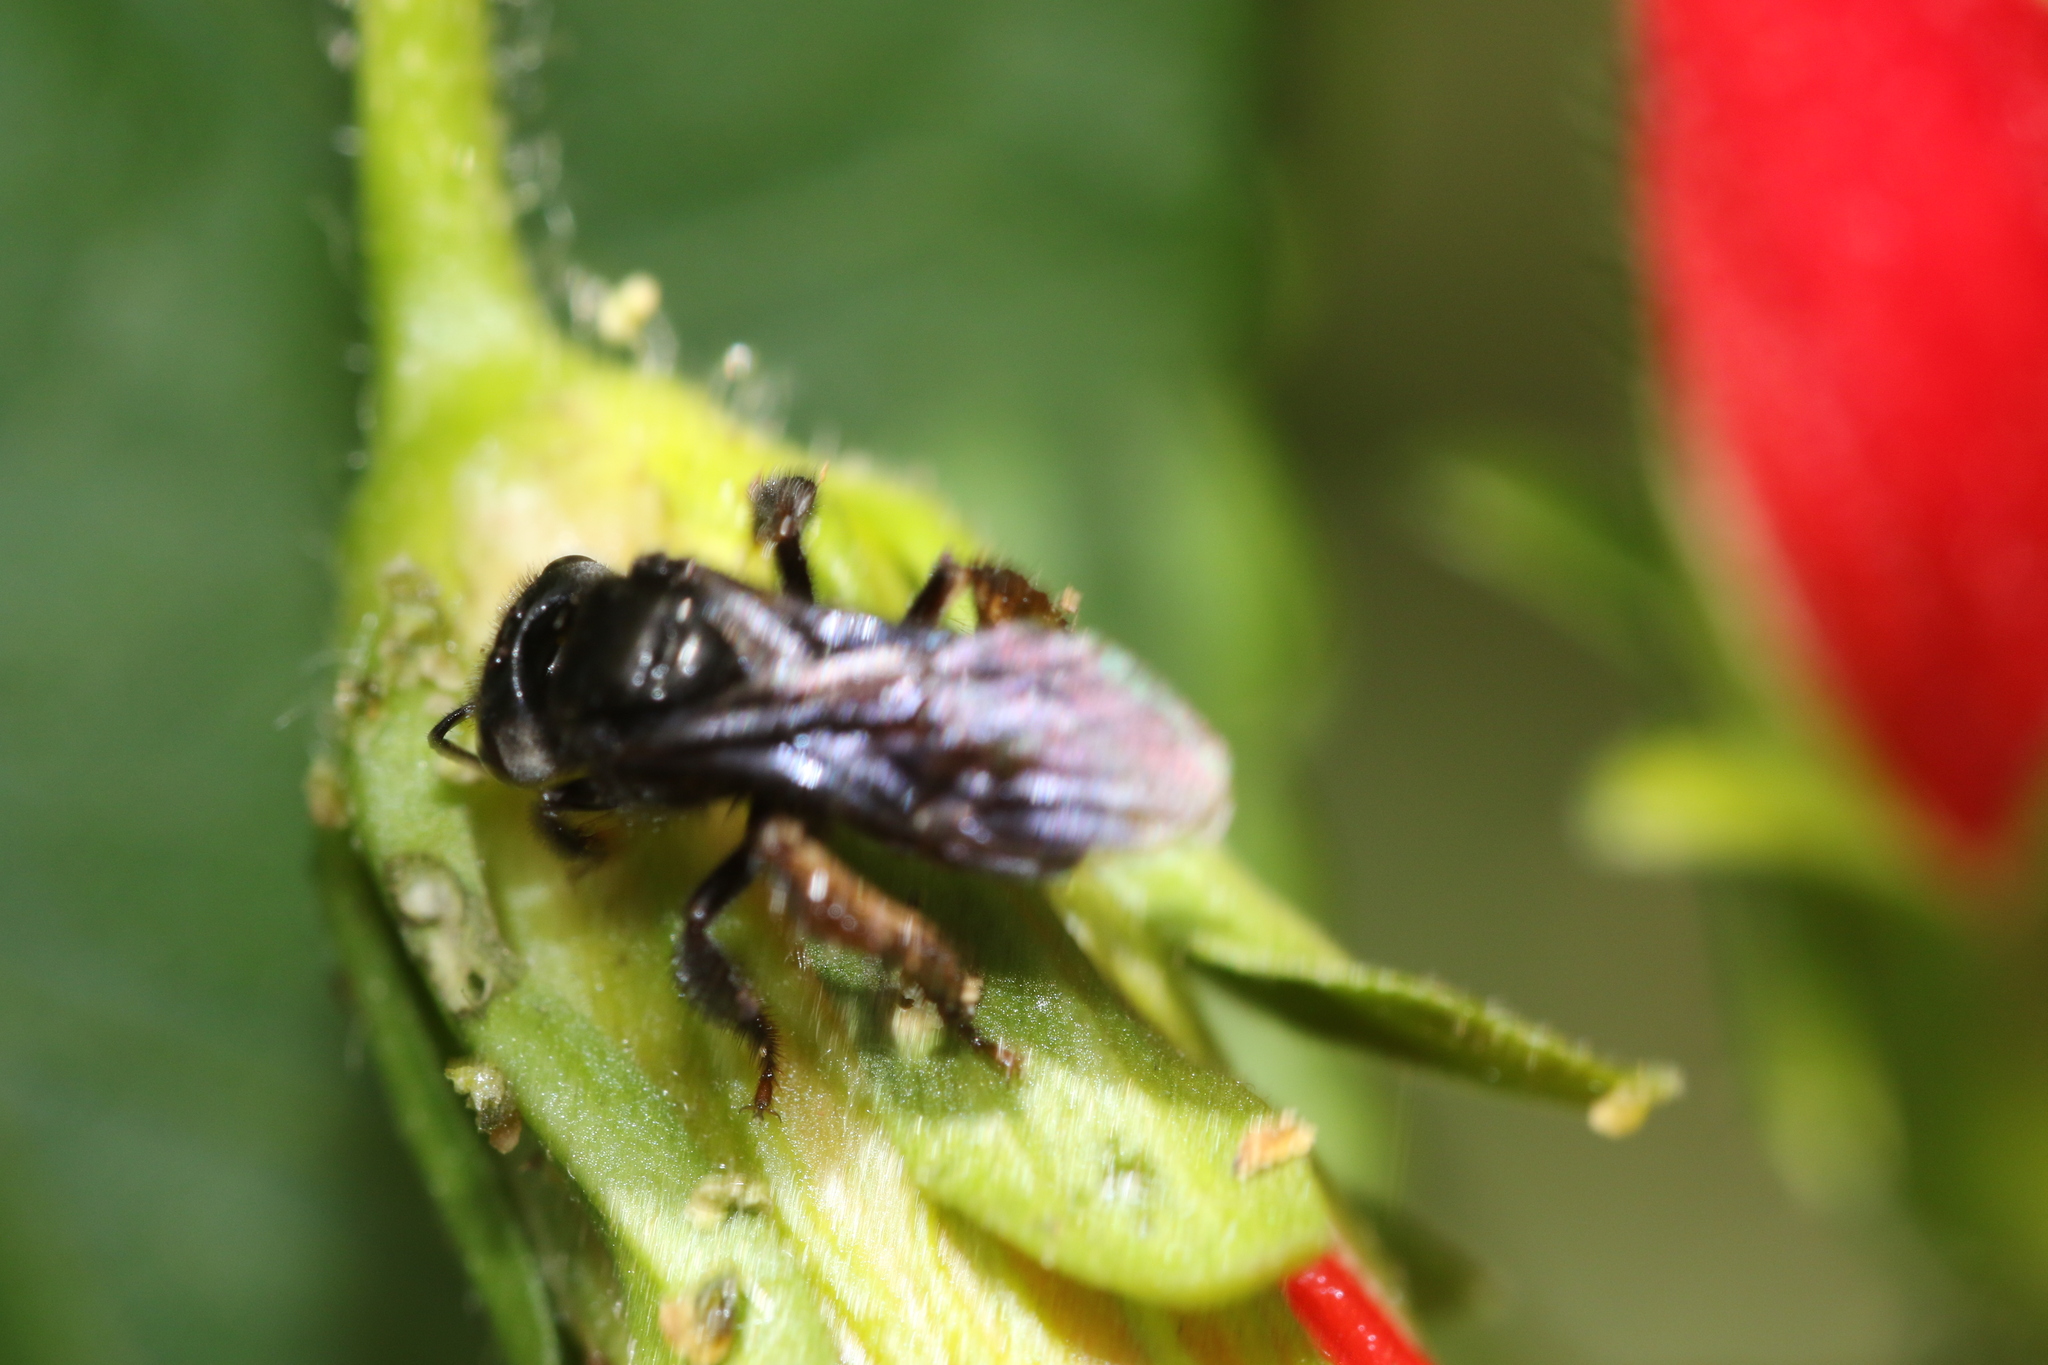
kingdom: Animalia
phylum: Arthropoda
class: Insecta
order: Hymenoptera
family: Apidae
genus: Trigona
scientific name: Trigona spinipes
